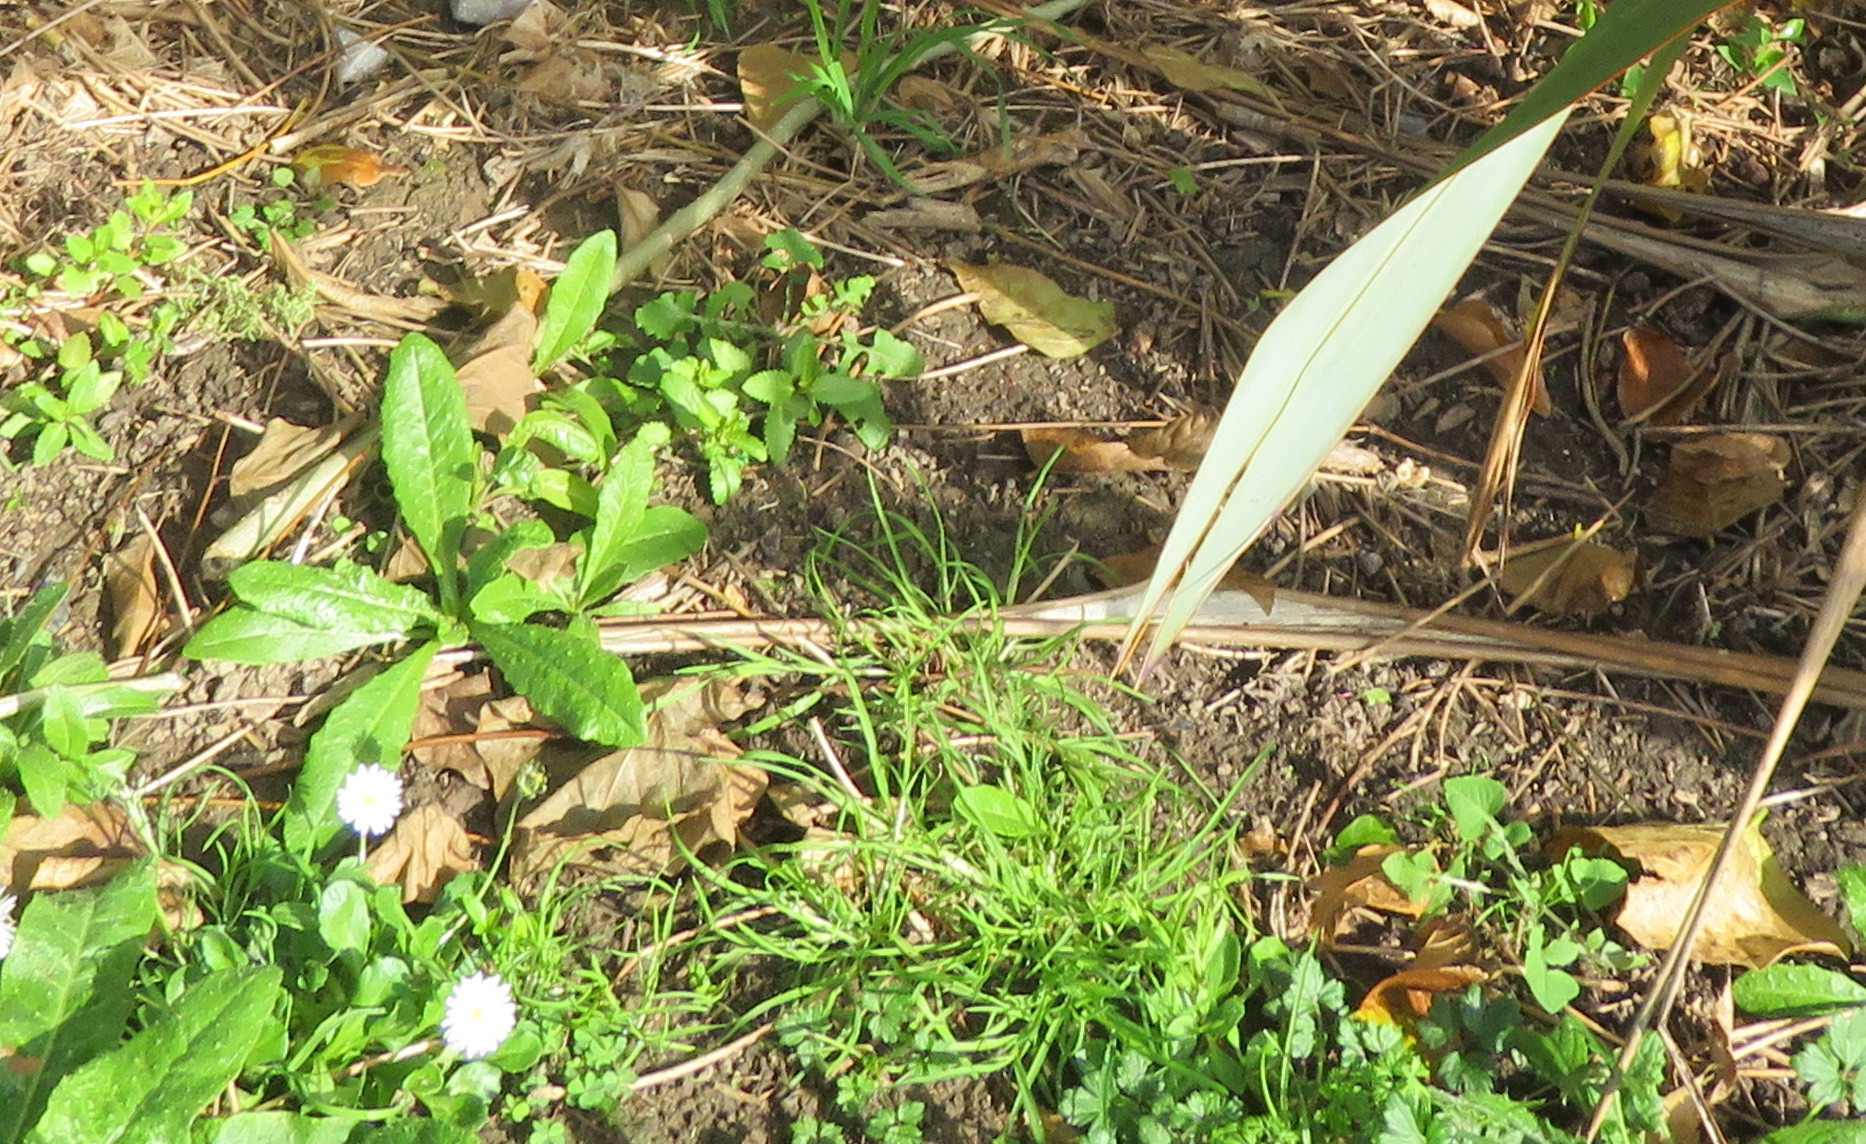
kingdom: Plantae
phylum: Tracheophyta
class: Liliopsida
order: Poales
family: Poaceae
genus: Cenchrus
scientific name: Cenchrus clandestinus
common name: Kikuyugrass
